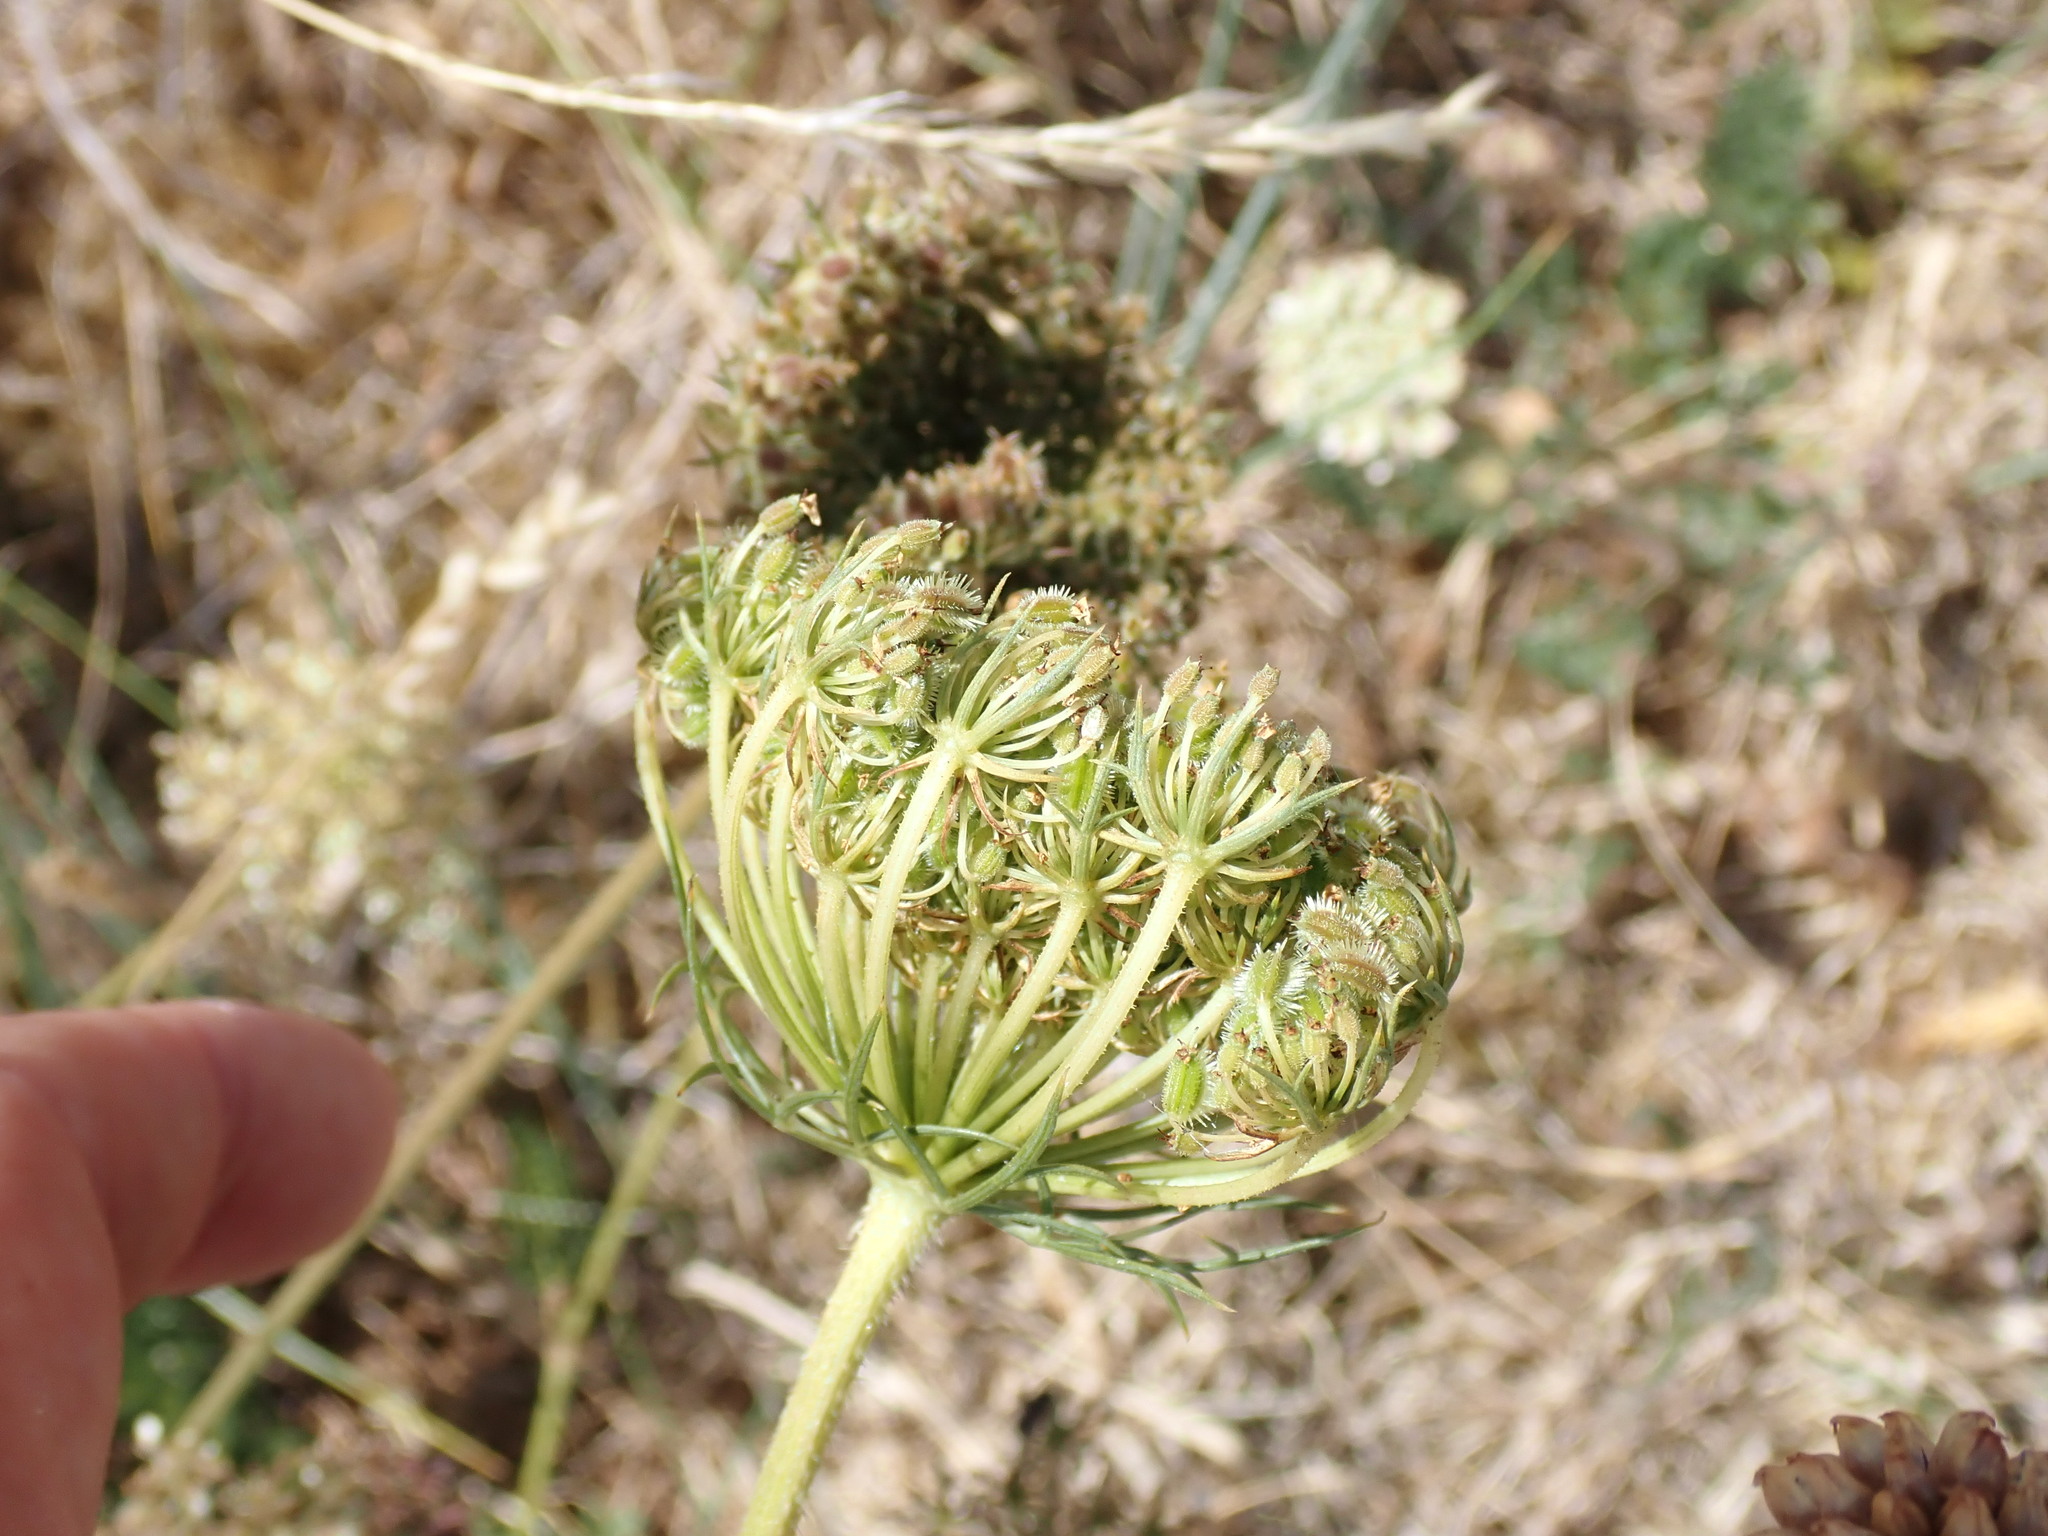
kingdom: Plantae
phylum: Tracheophyta
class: Magnoliopsida
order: Apiales
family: Apiaceae
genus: Daucus
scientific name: Daucus carota
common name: Wild carrot
